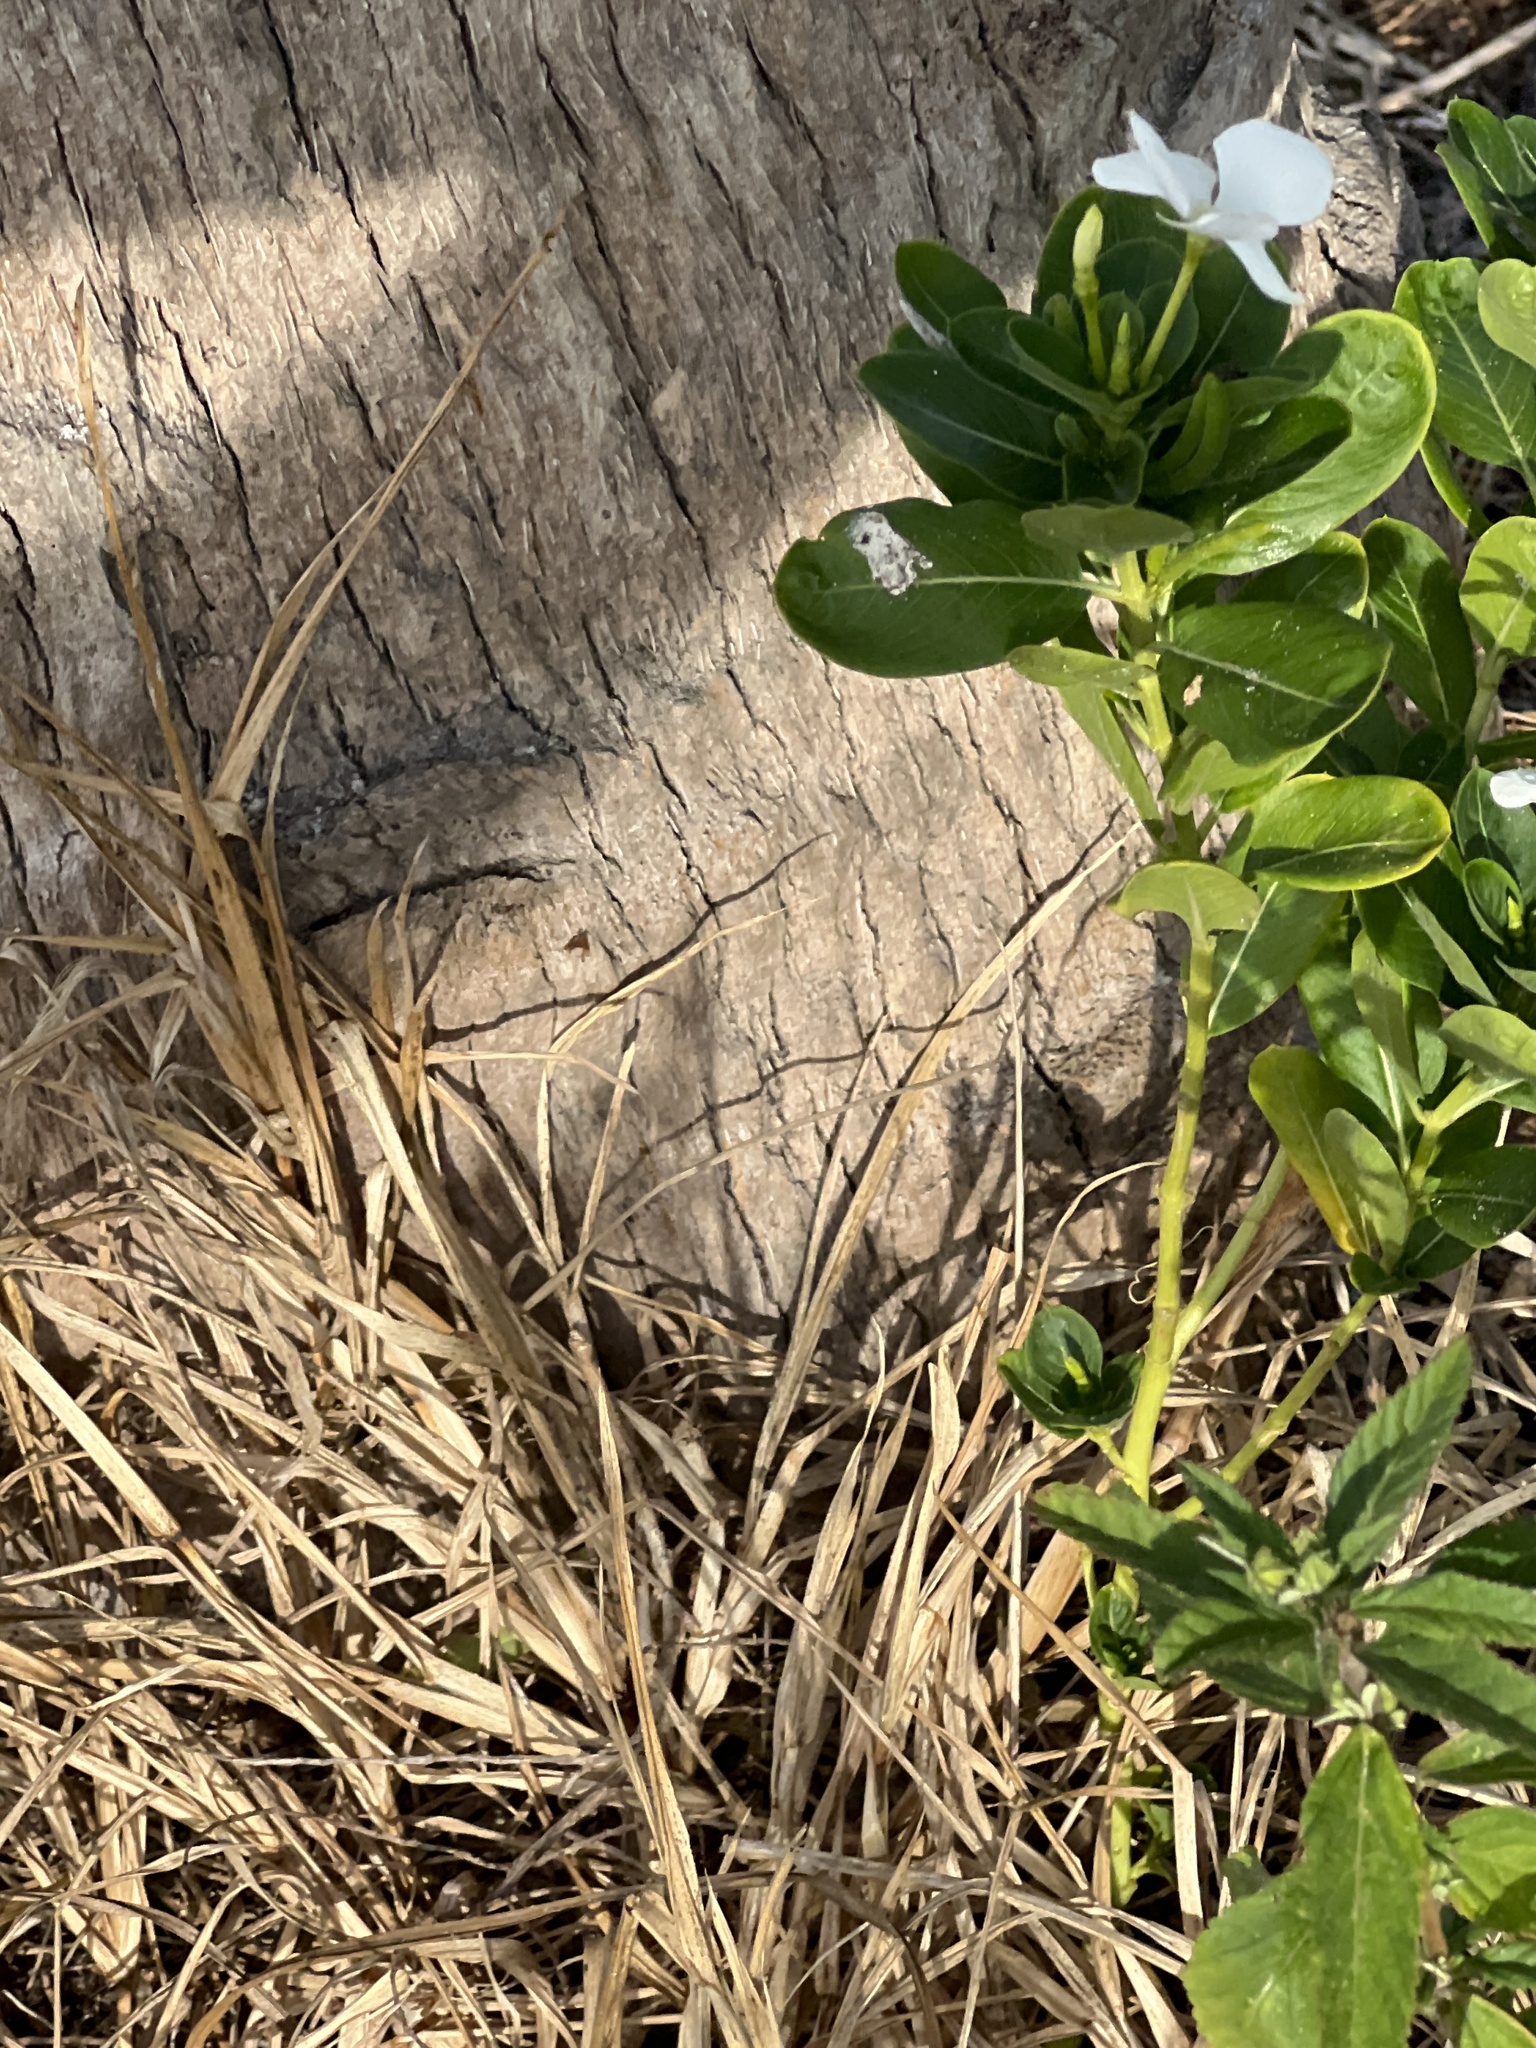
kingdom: Plantae
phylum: Tracheophyta
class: Magnoliopsida
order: Gentianales
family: Apocynaceae
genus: Catharanthus
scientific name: Catharanthus roseus
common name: Madagascar periwinkle
